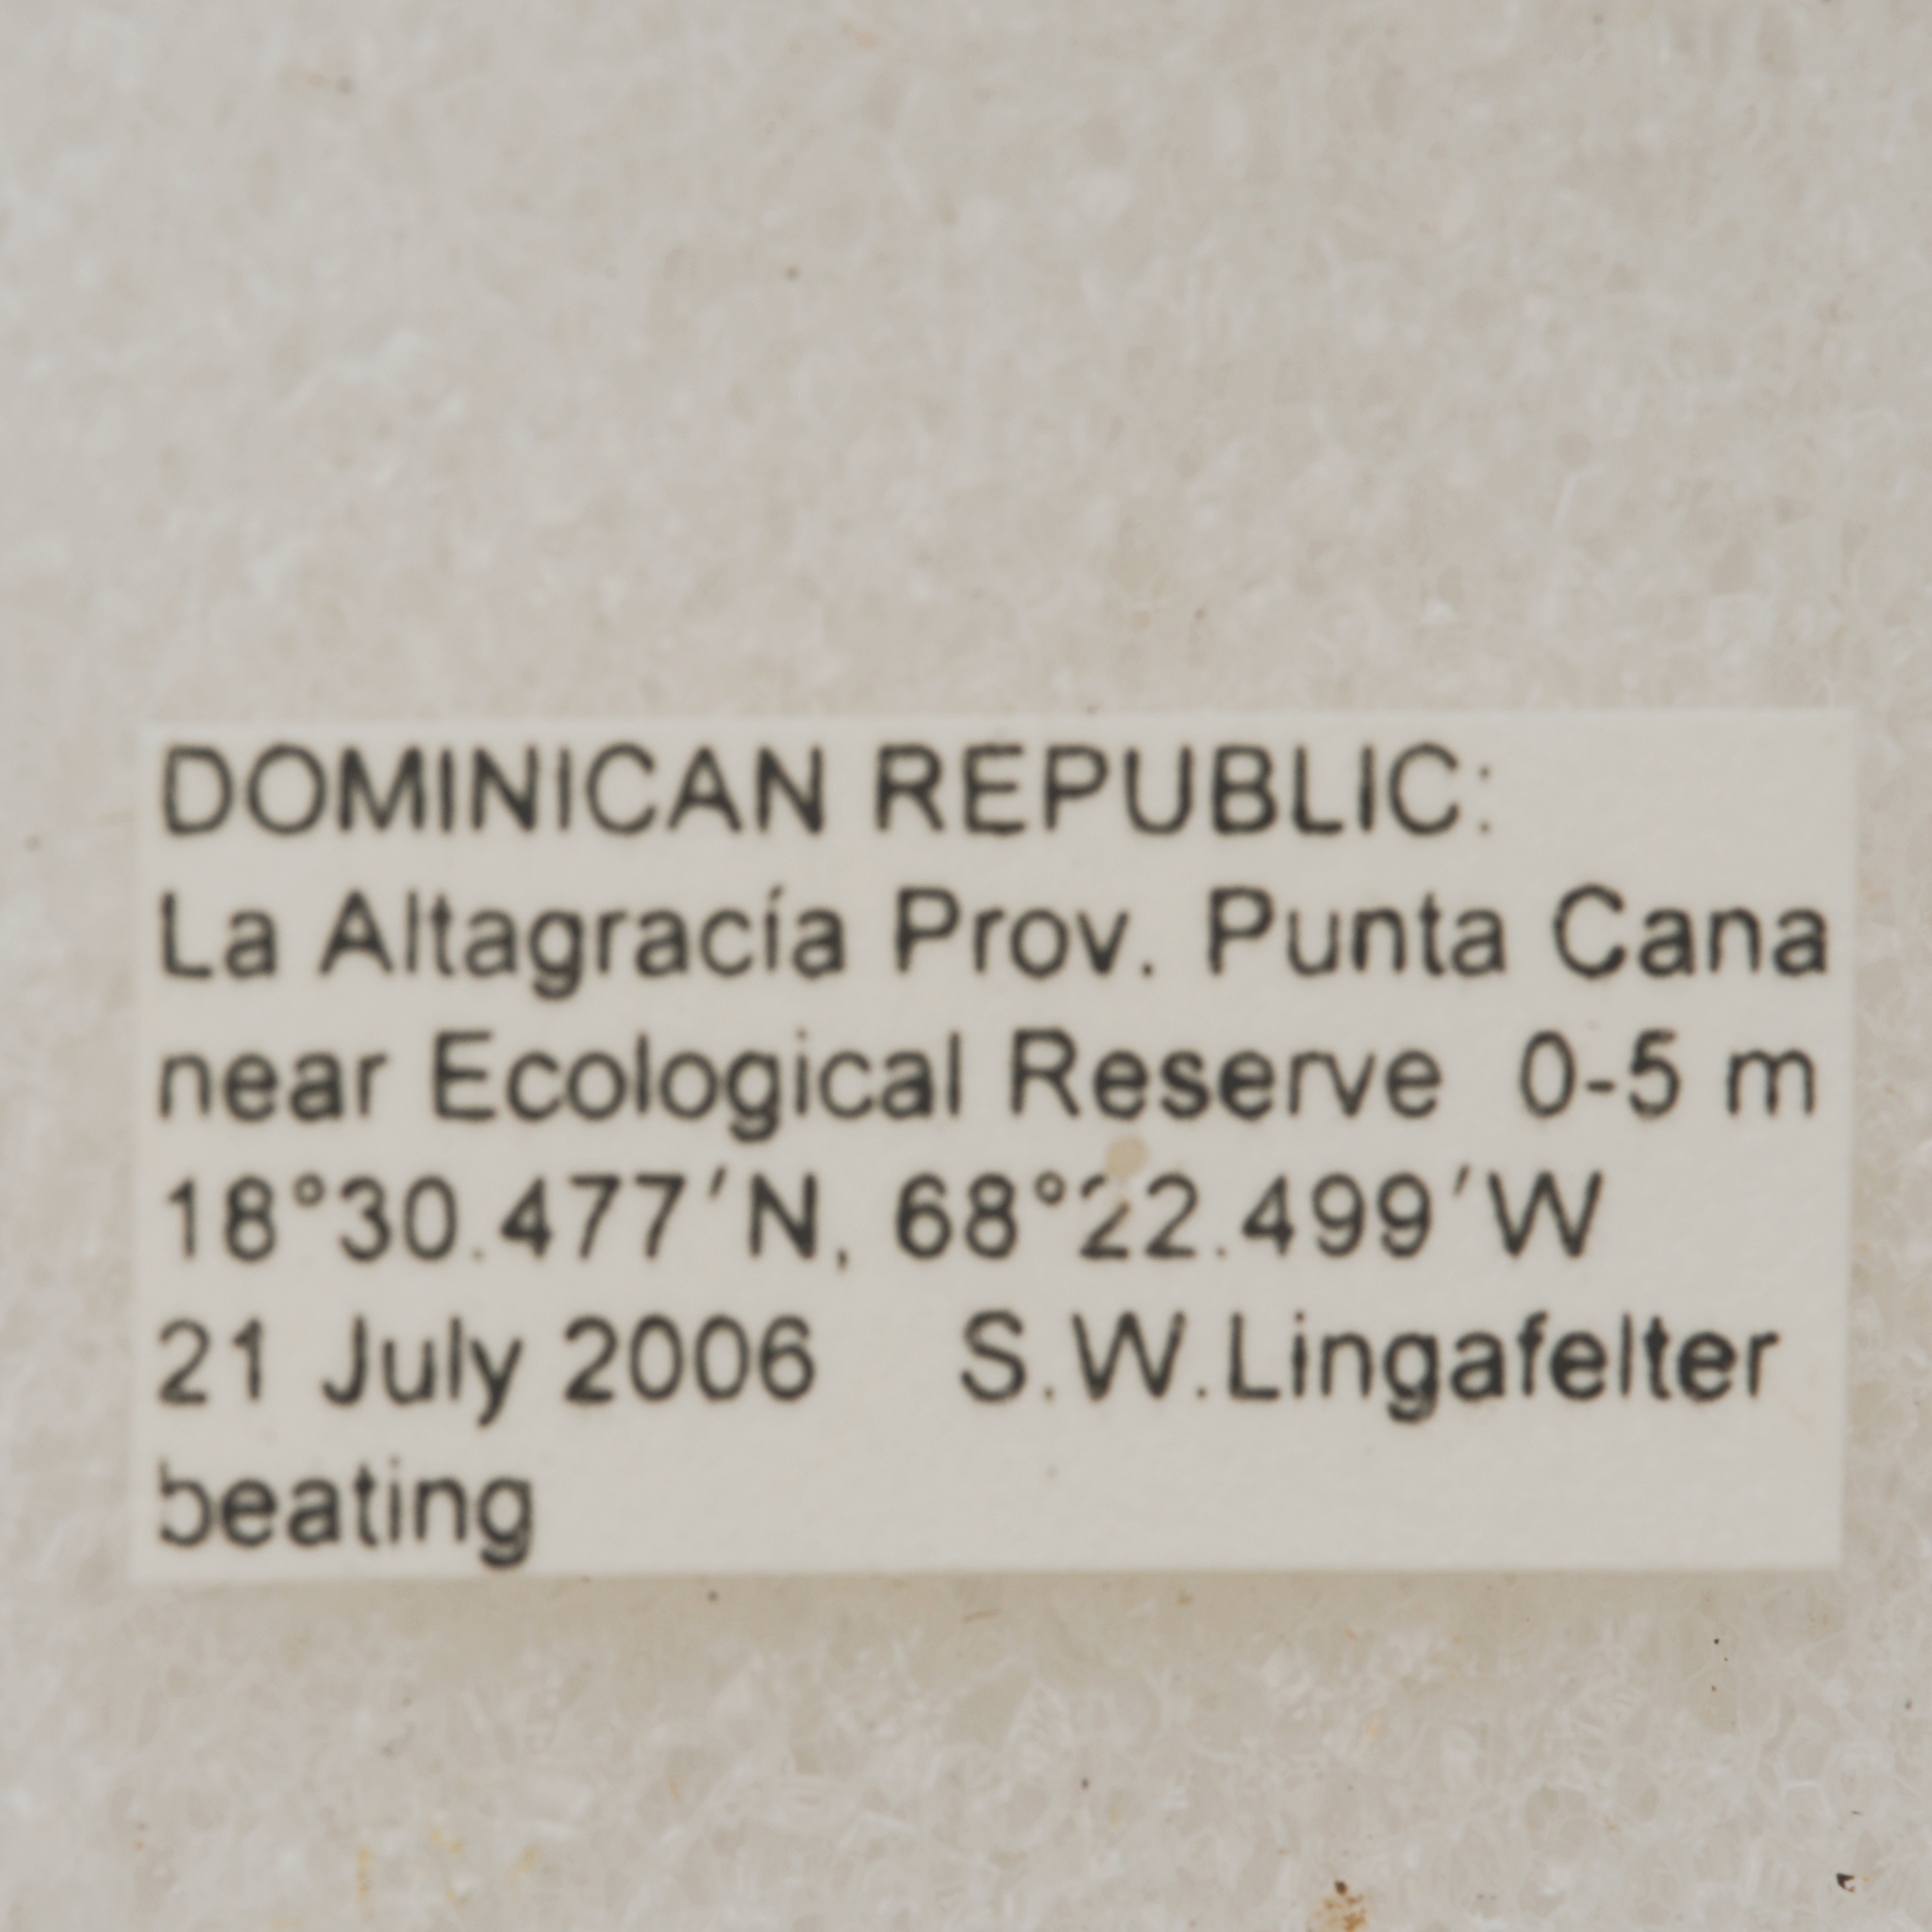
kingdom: Animalia
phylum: Arthropoda
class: Insecta
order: Coleoptera
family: Cerambycidae
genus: Urgleptes
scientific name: Urgleptes sandersoni
